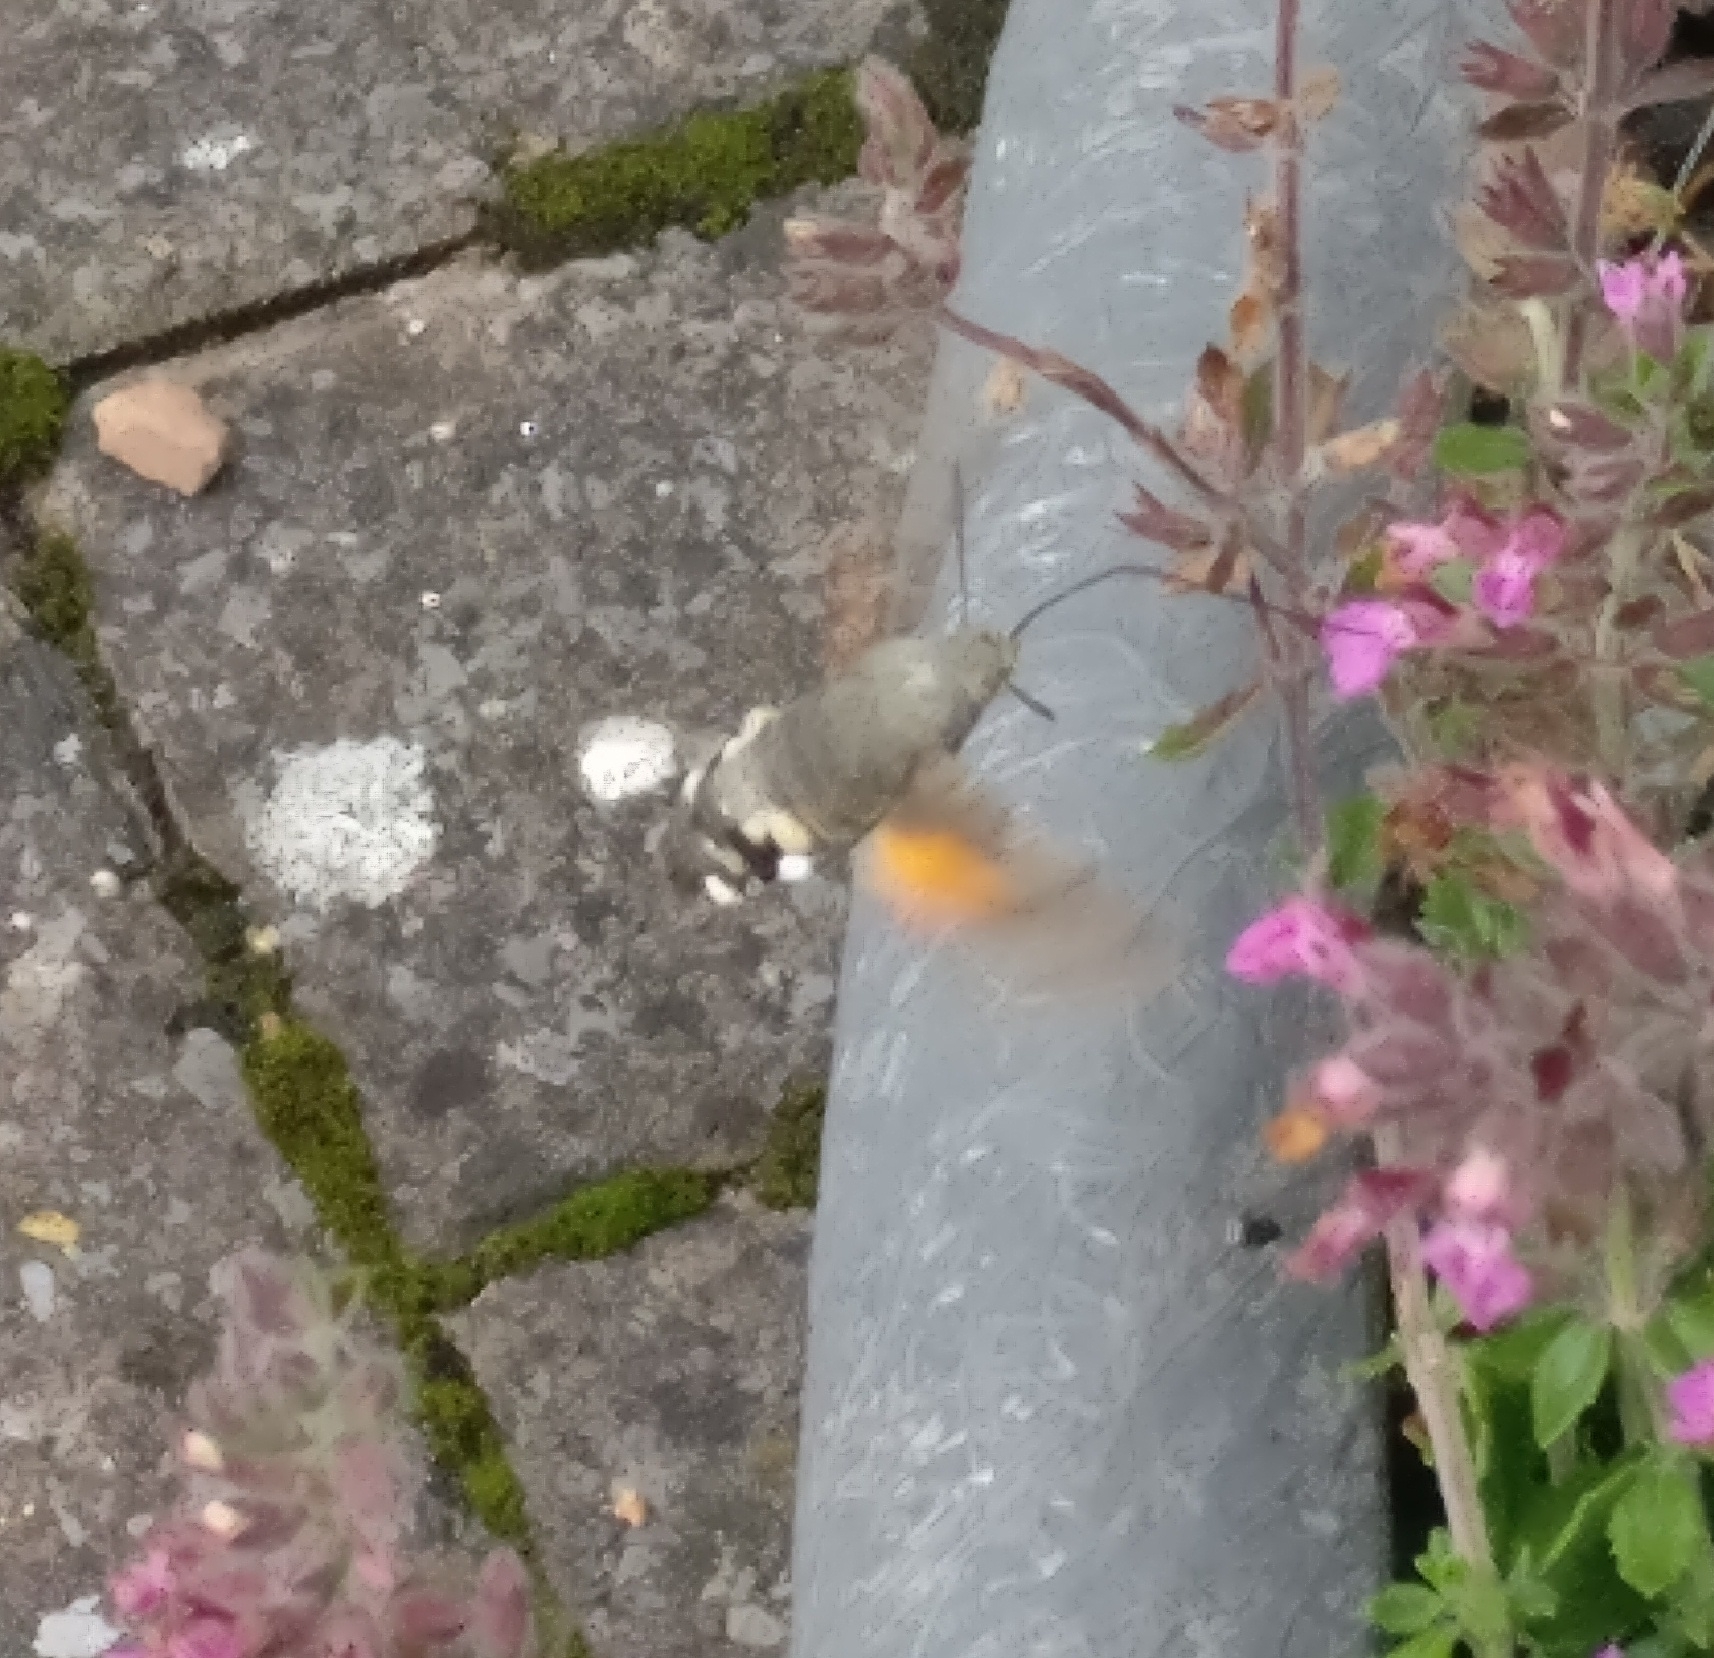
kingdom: Animalia
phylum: Arthropoda
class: Insecta
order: Lepidoptera
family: Sphingidae
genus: Macroglossum
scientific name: Macroglossum stellatarum
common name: Humming-bird hawk-moth
